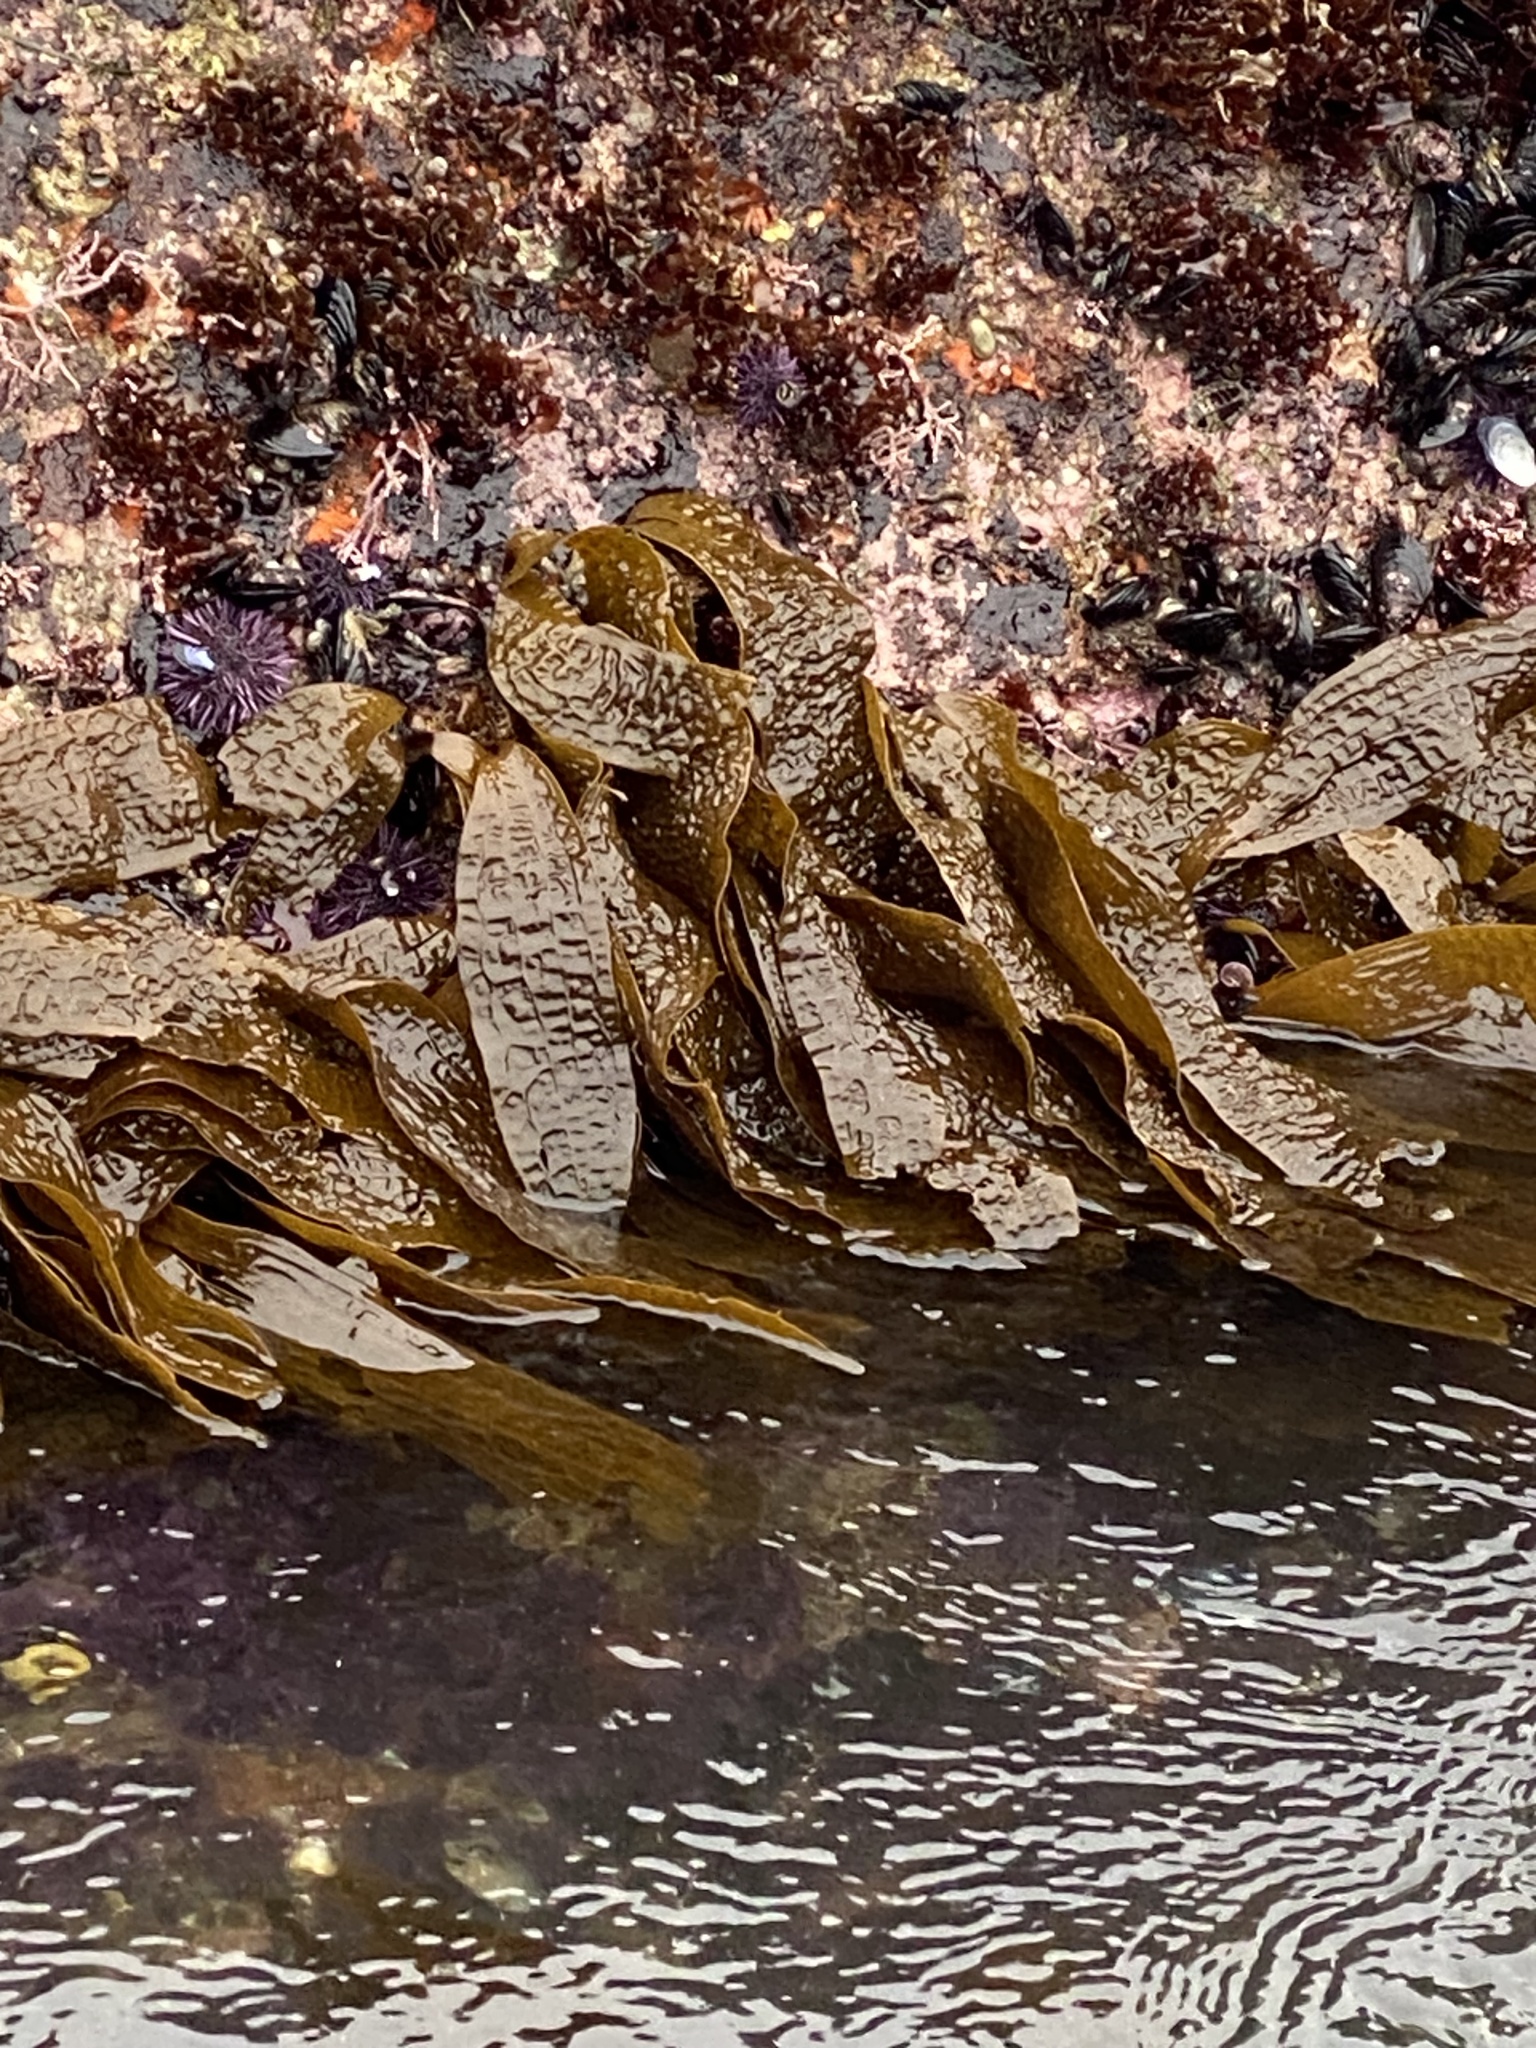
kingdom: Chromista
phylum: Ochrophyta
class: Phaeophyceae
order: Laminariales
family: Costariaceae
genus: Dictyoneurum
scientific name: Dictyoneurum californicum
